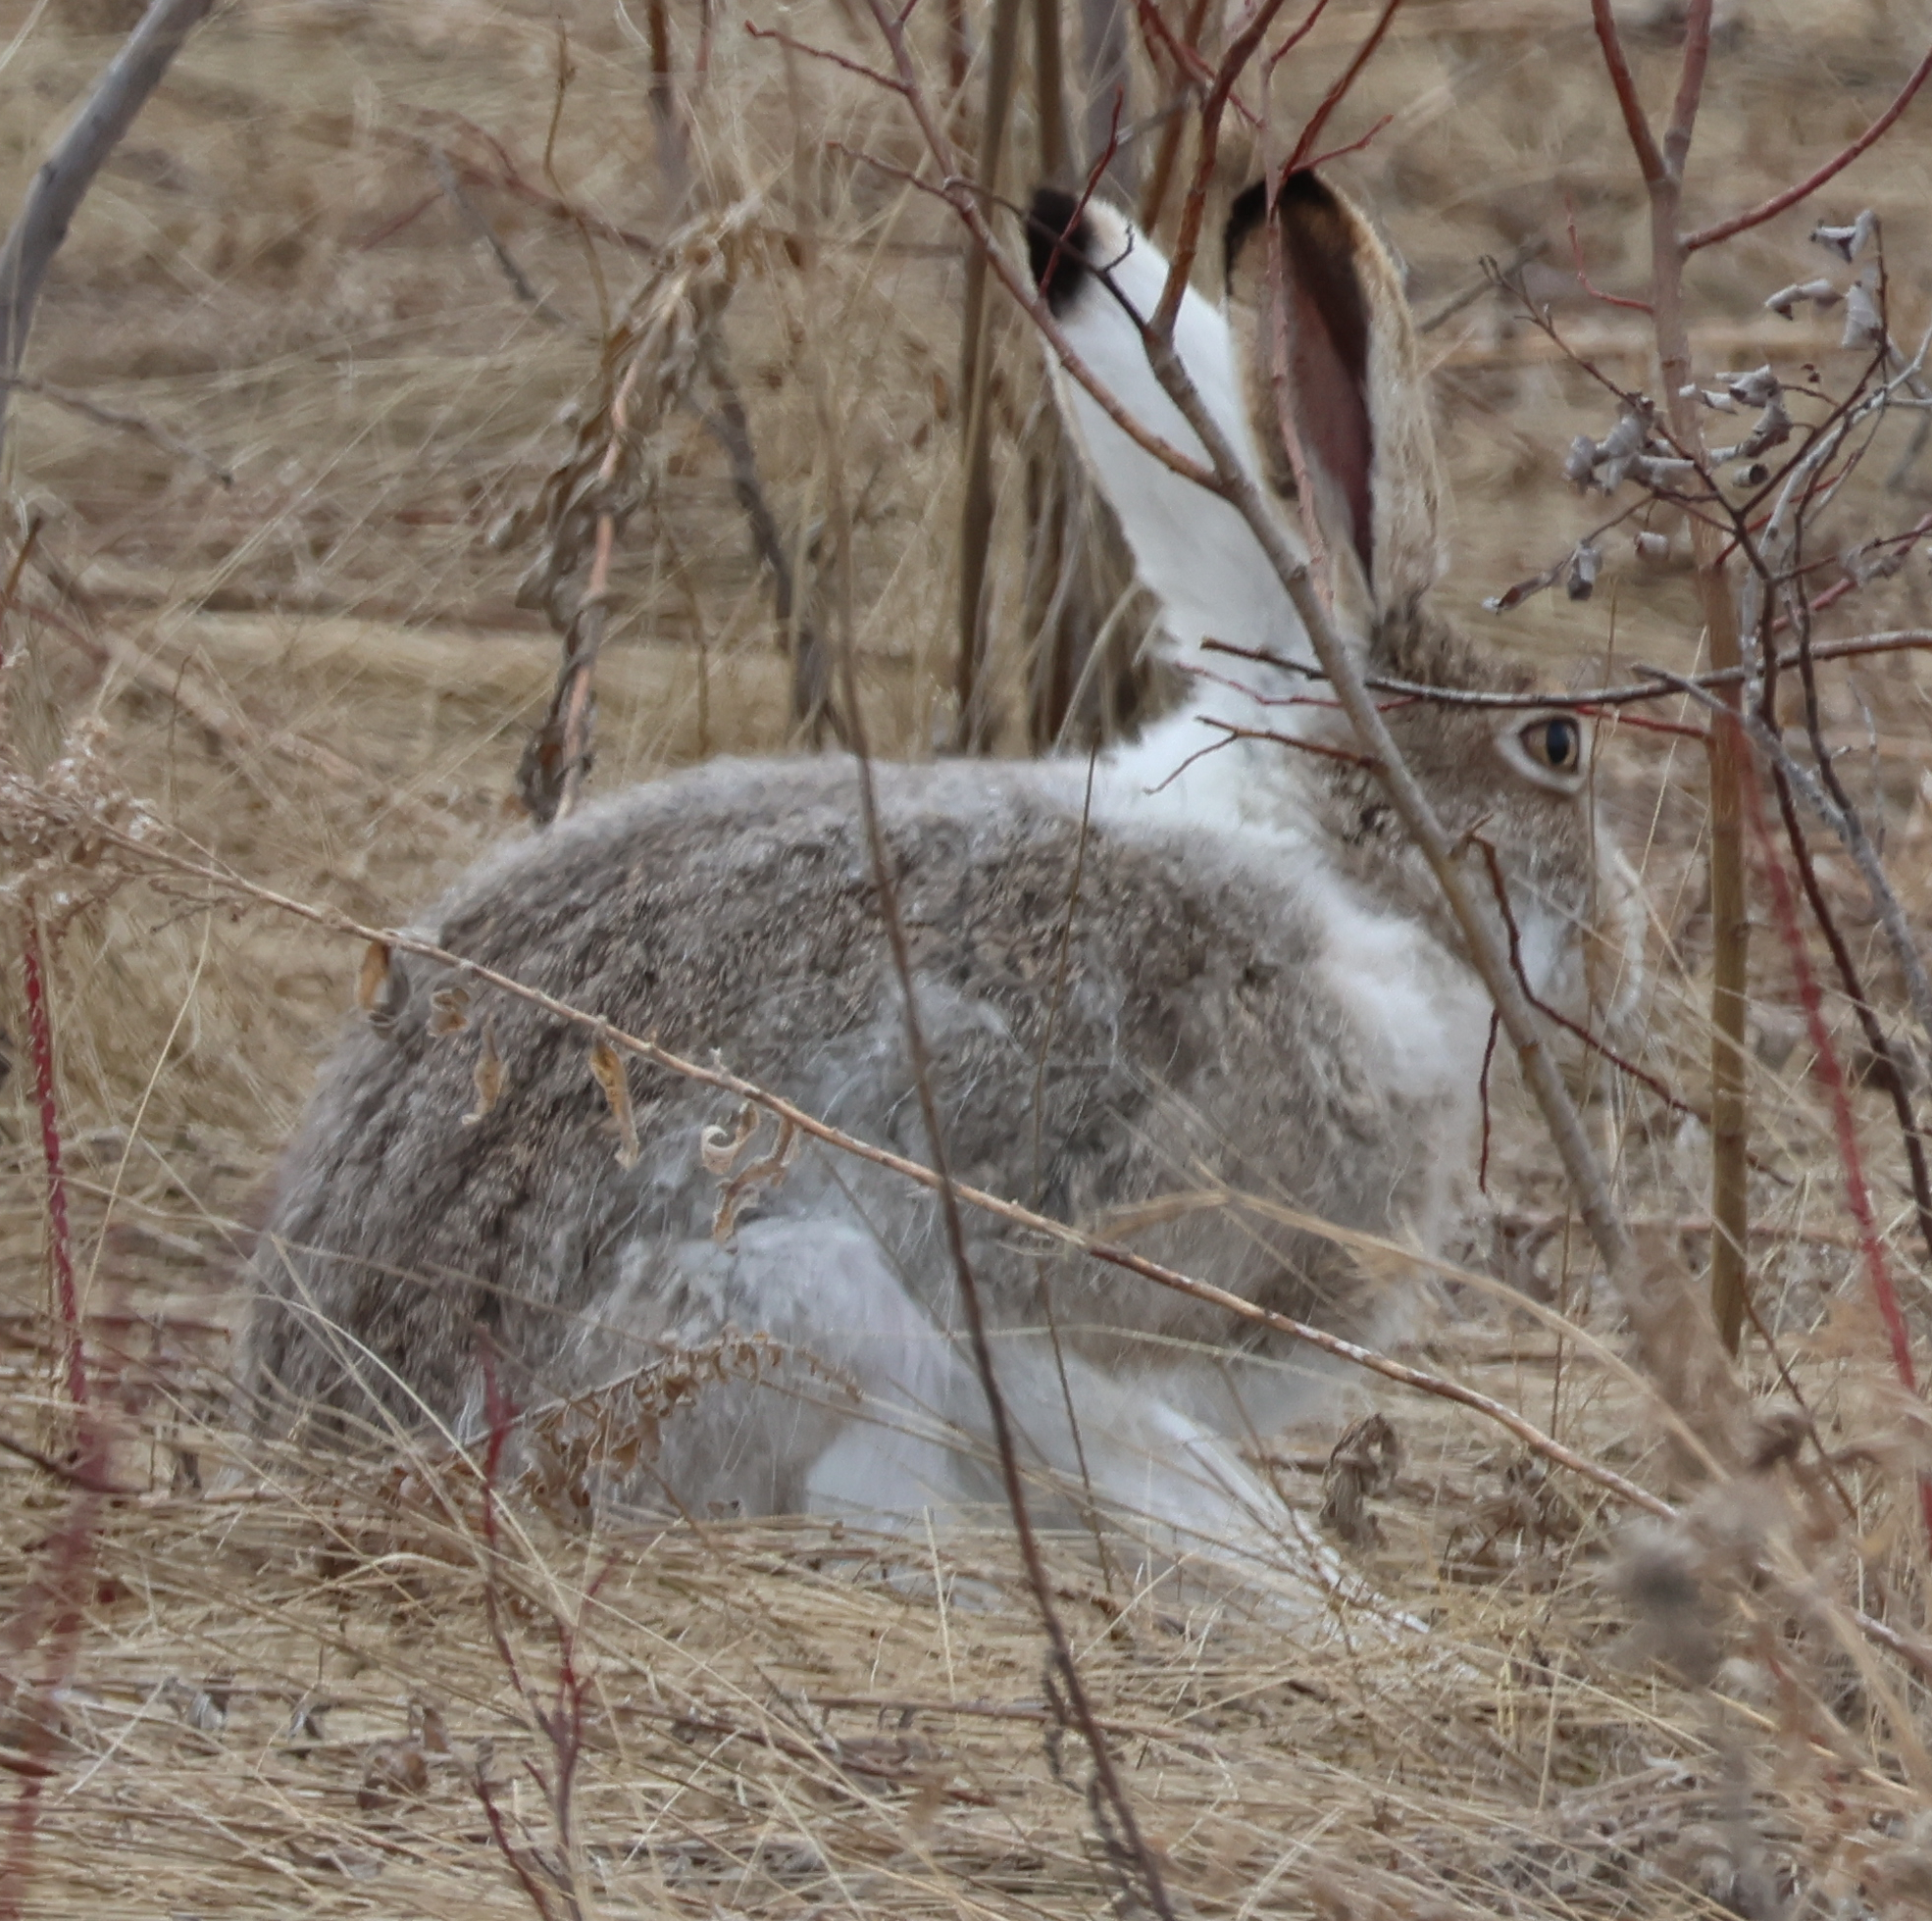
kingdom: Animalia
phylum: Chordata
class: Mammalia
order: Lagomorpha
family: Leporidae
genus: Lepus
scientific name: Lepus townsendii
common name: White-tailed jackrabbit
